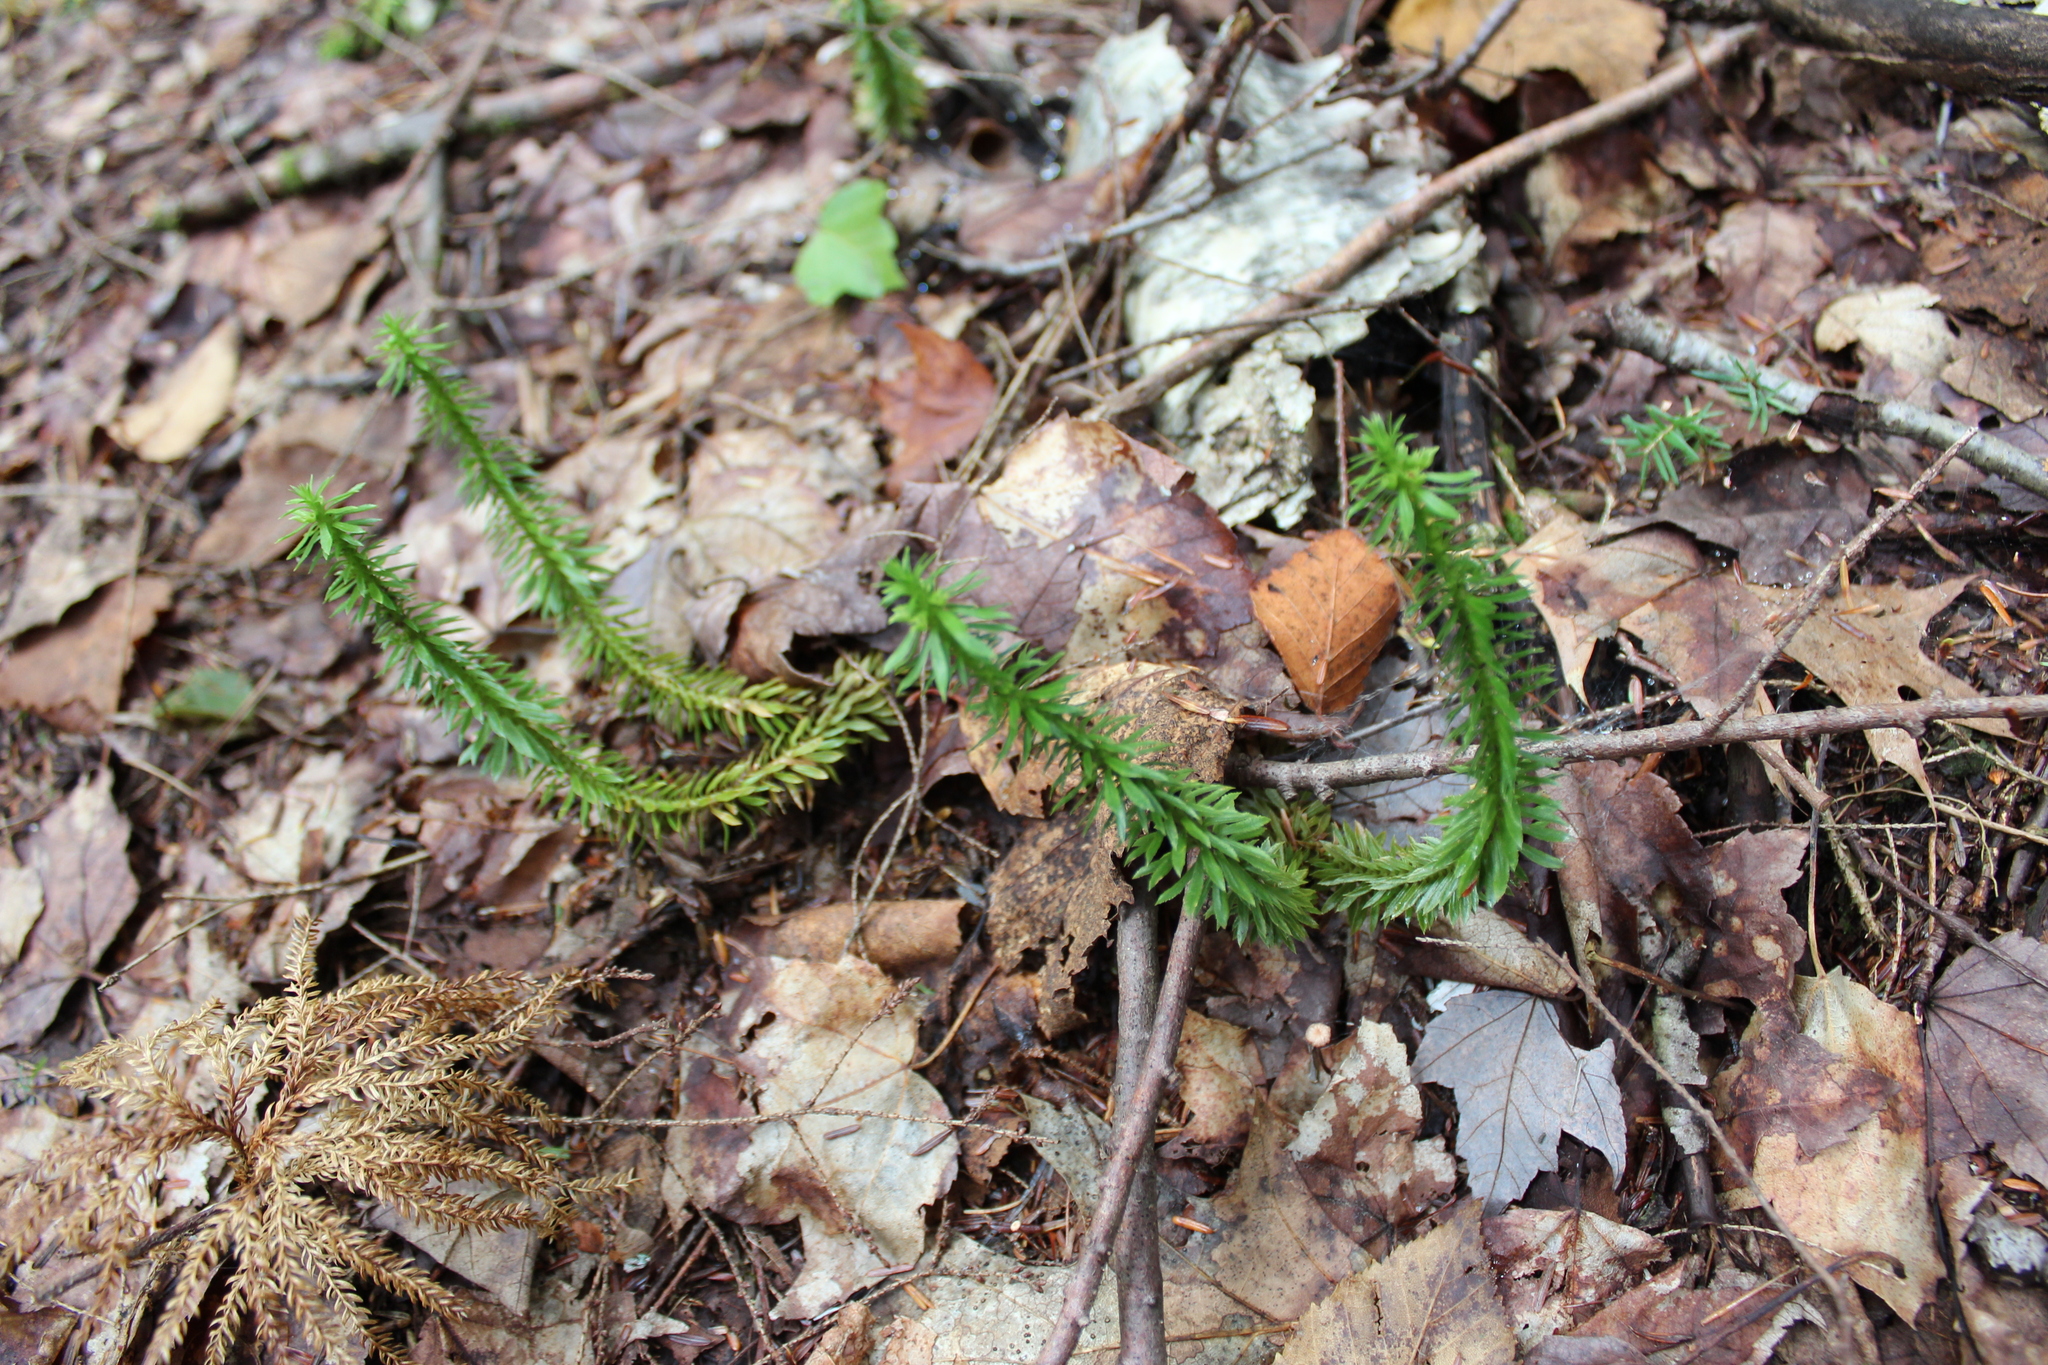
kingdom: Plantae
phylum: Tracheophyta
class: Lycopodiopsida
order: Lycopodiales
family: Lycopodiaceae
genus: Huperzia
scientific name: Huperzia lucidula
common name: Shining clubmoss
